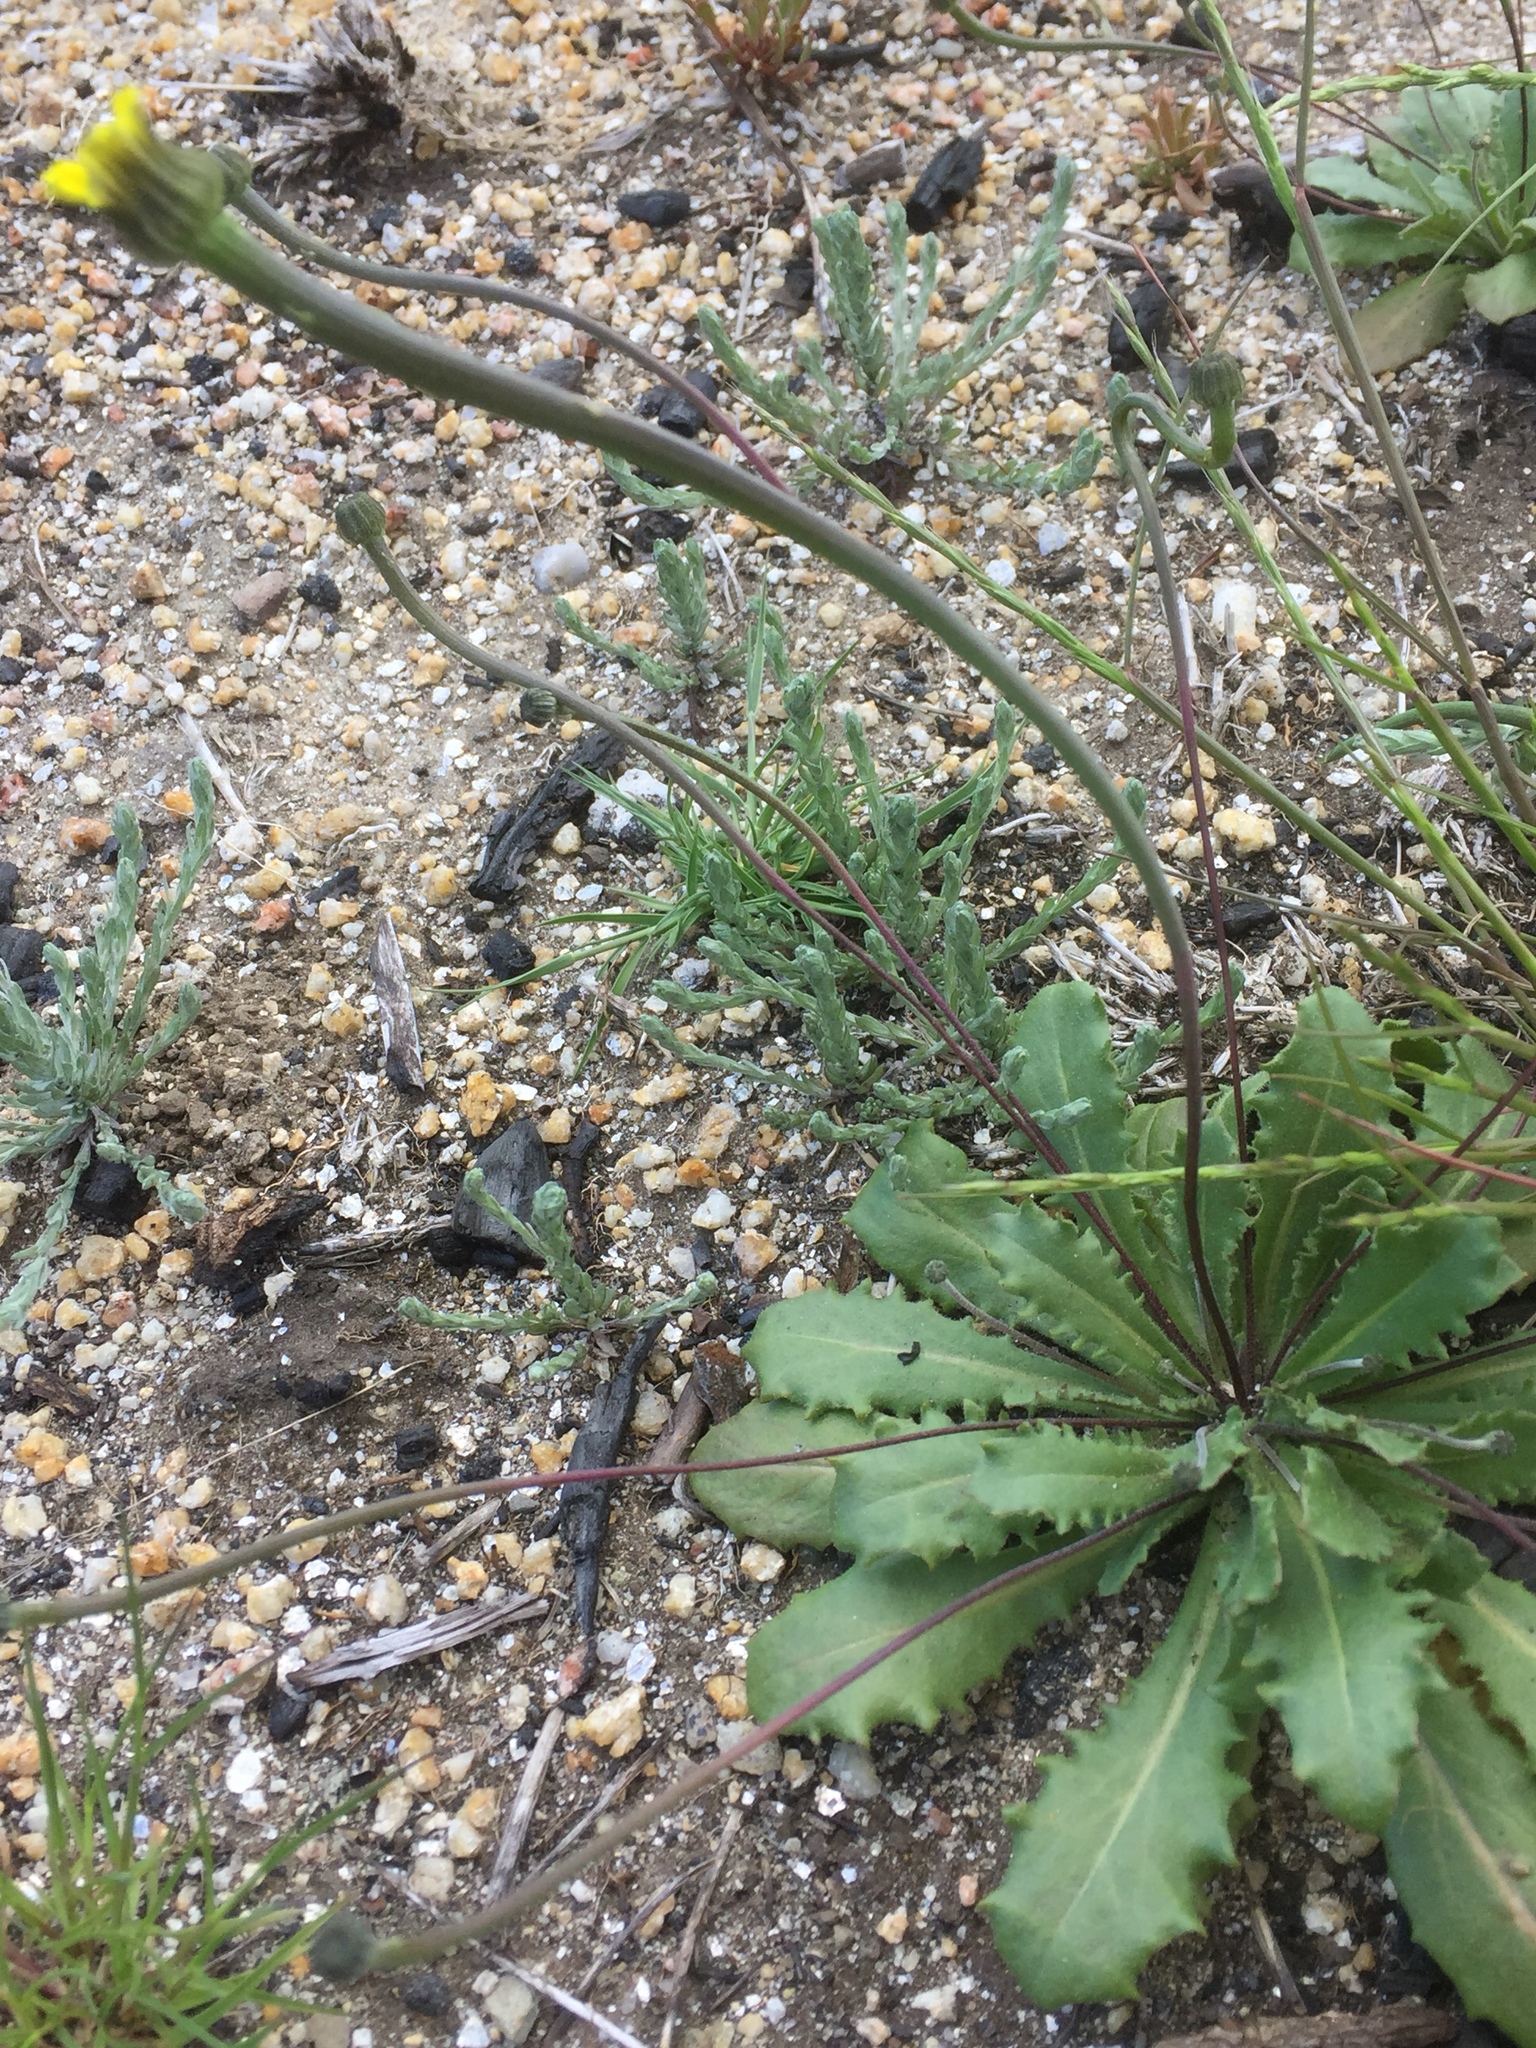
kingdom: Plantae
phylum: Tracheophyta
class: Magnoliopsida
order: Asterales
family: Asteraceae
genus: Hypochaeris
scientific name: Hypochaeris glabra
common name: Smooth catsear
